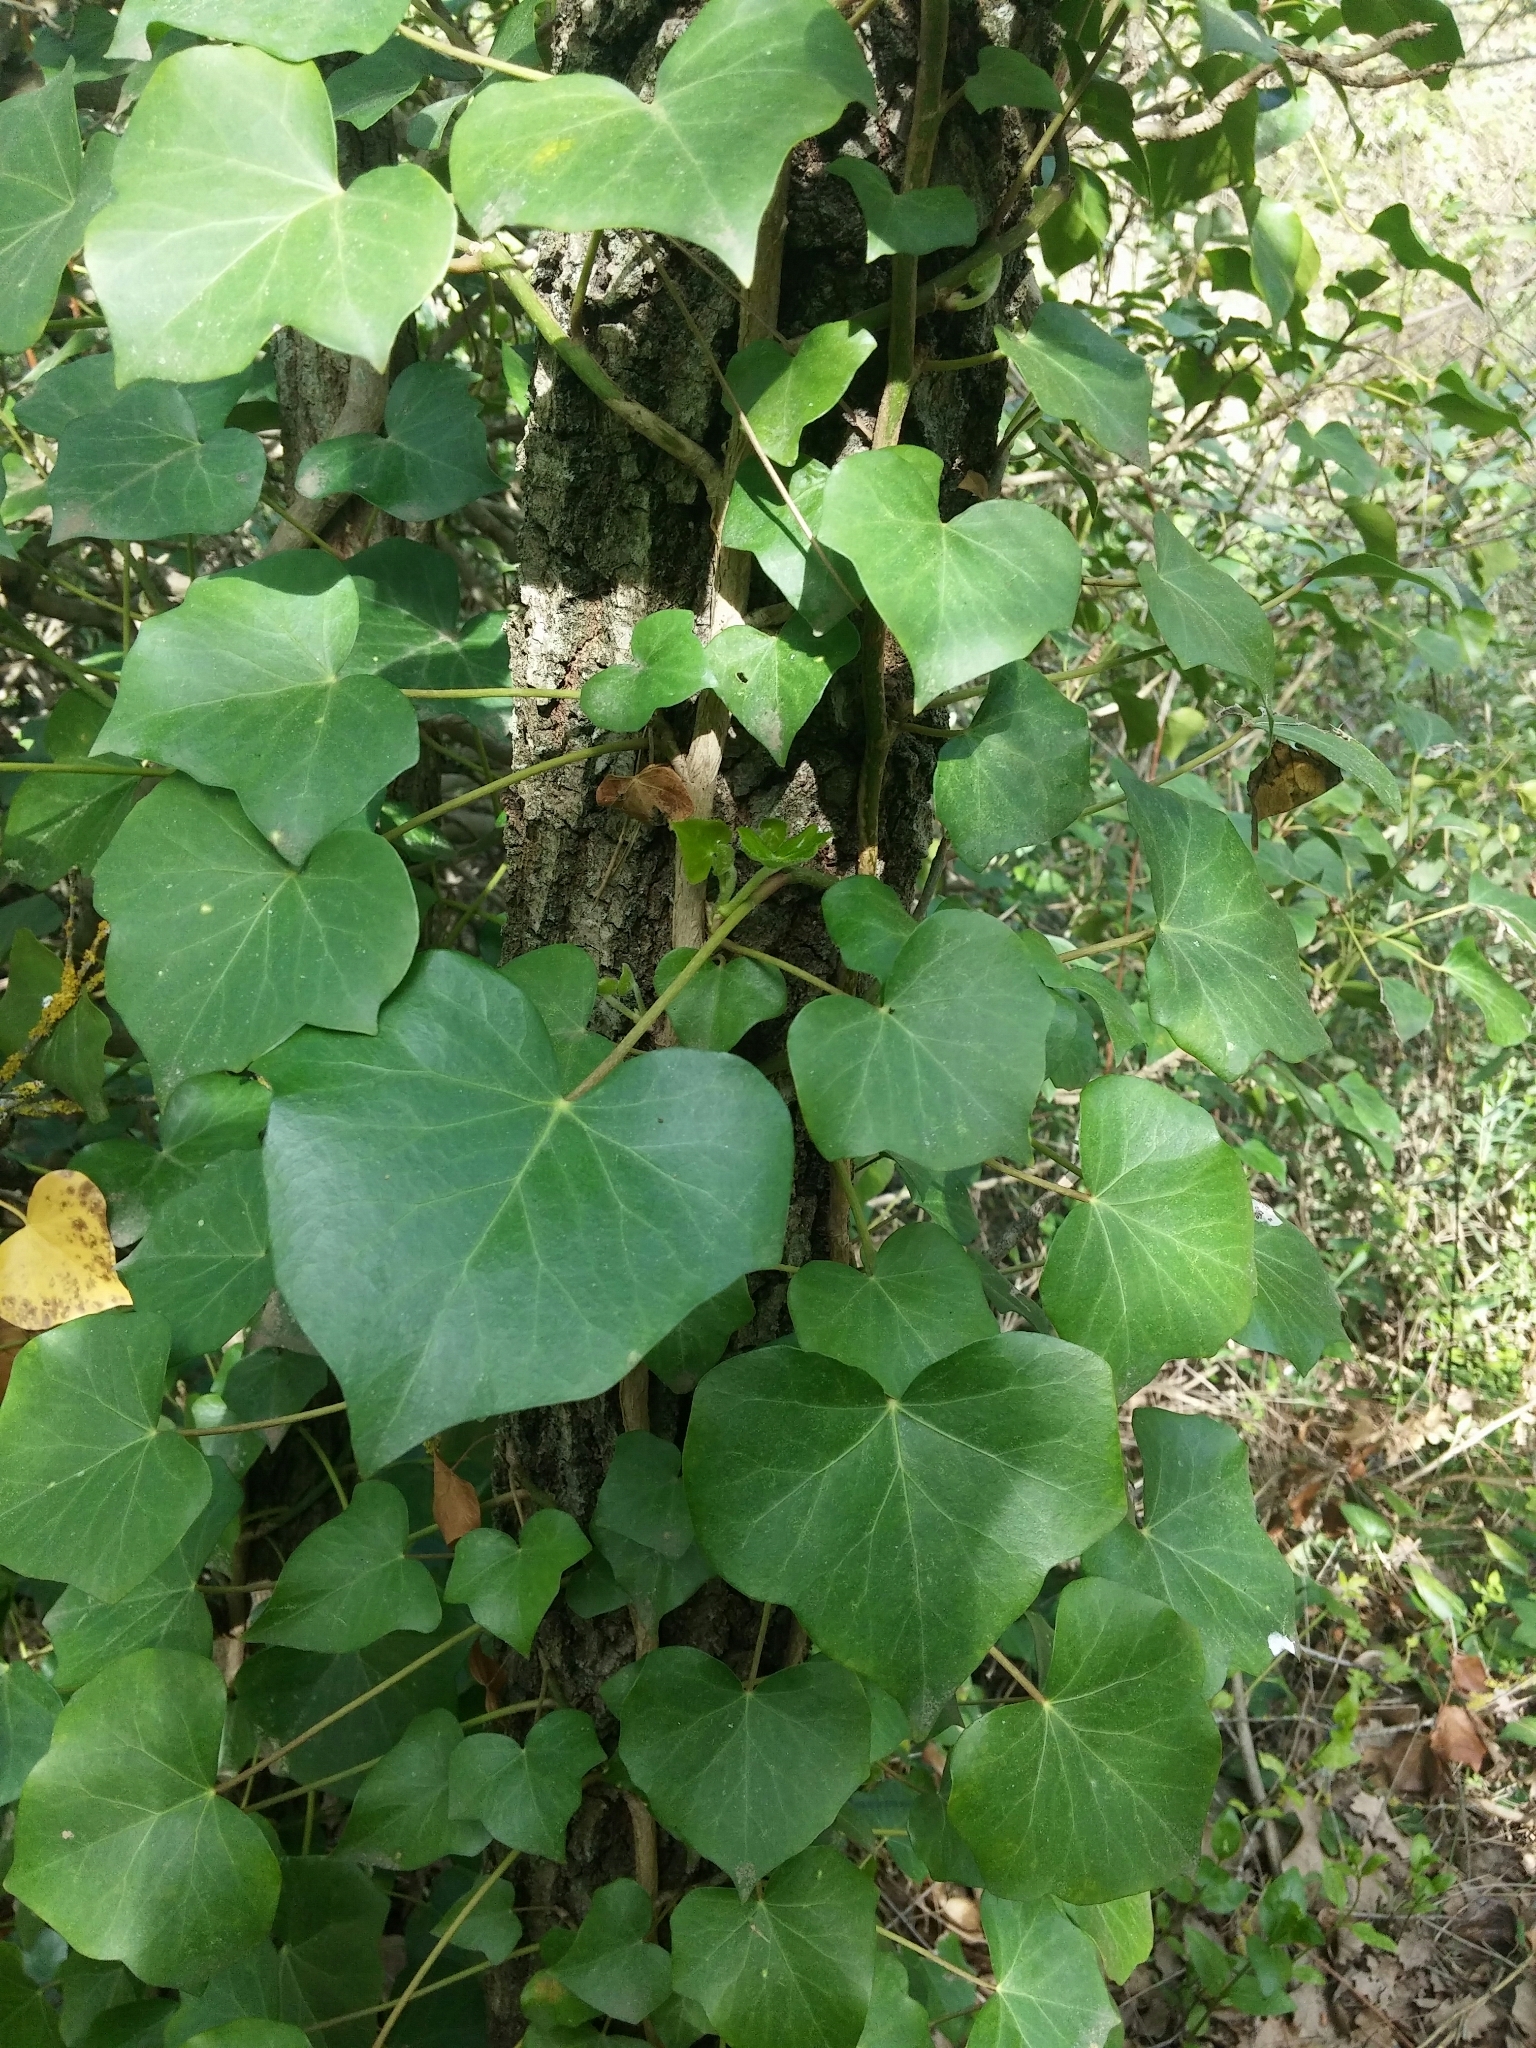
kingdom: Plantae
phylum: Tracheophyta
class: Magnoliopsida
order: Apiales
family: Araliaceae
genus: Hedera
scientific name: Hedera helix
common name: Ivy
